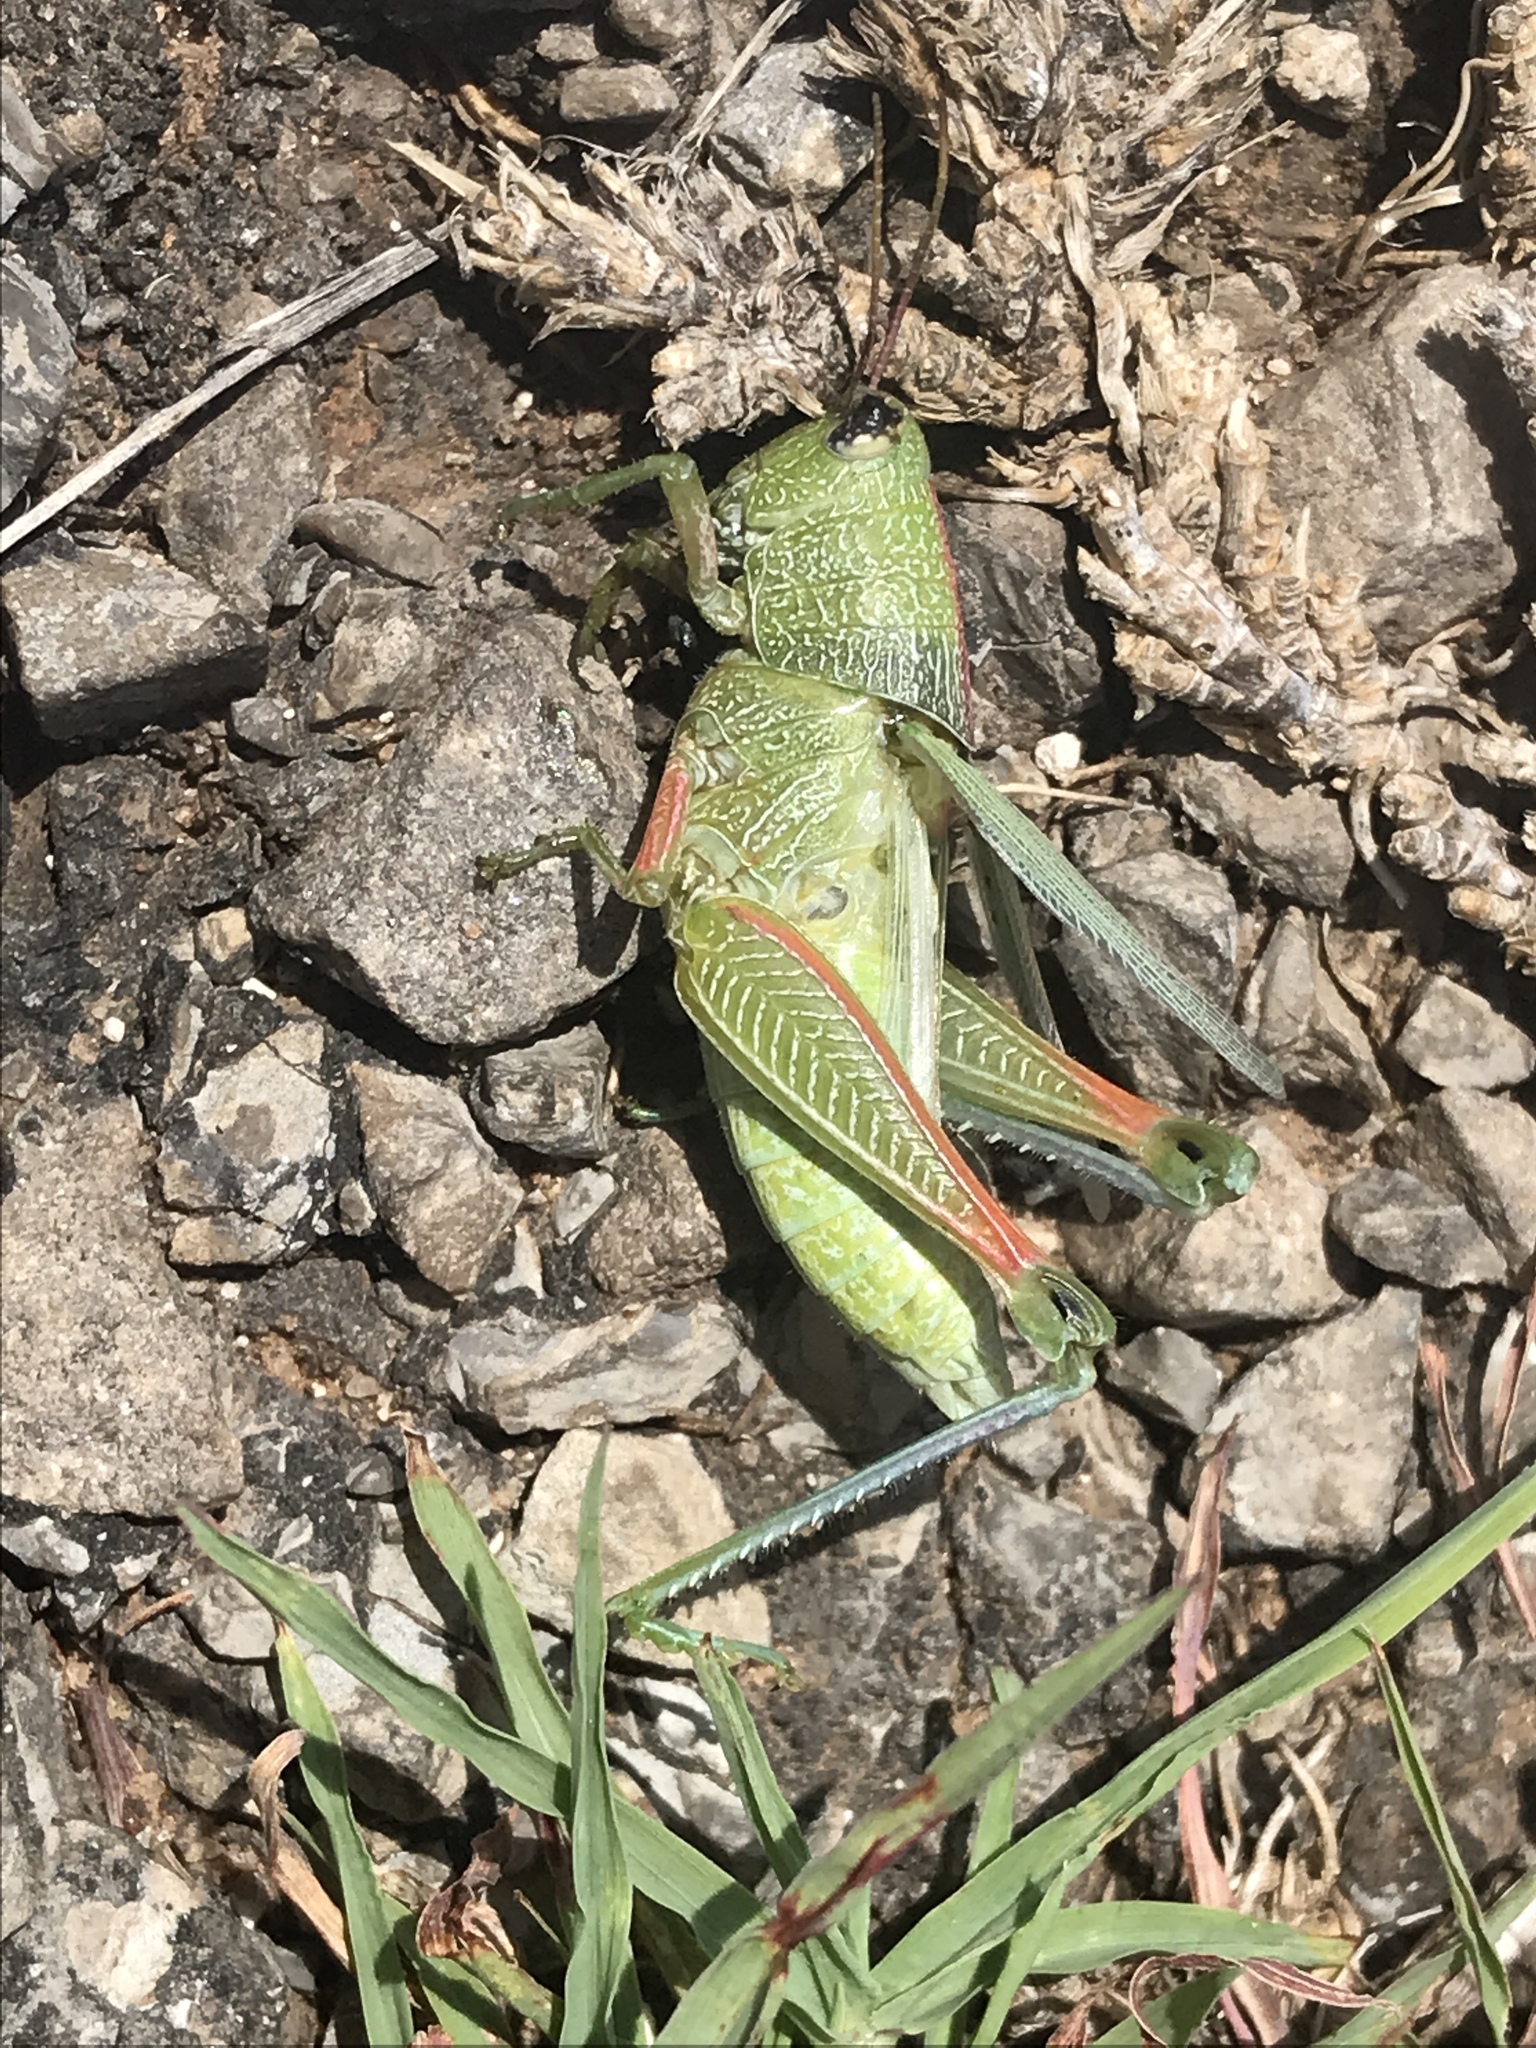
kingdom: Animalia
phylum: Arthropoda
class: Insecta
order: Orthoptera
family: Acrididae
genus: Hesperotettix
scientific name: Hesperotettix speciosus
